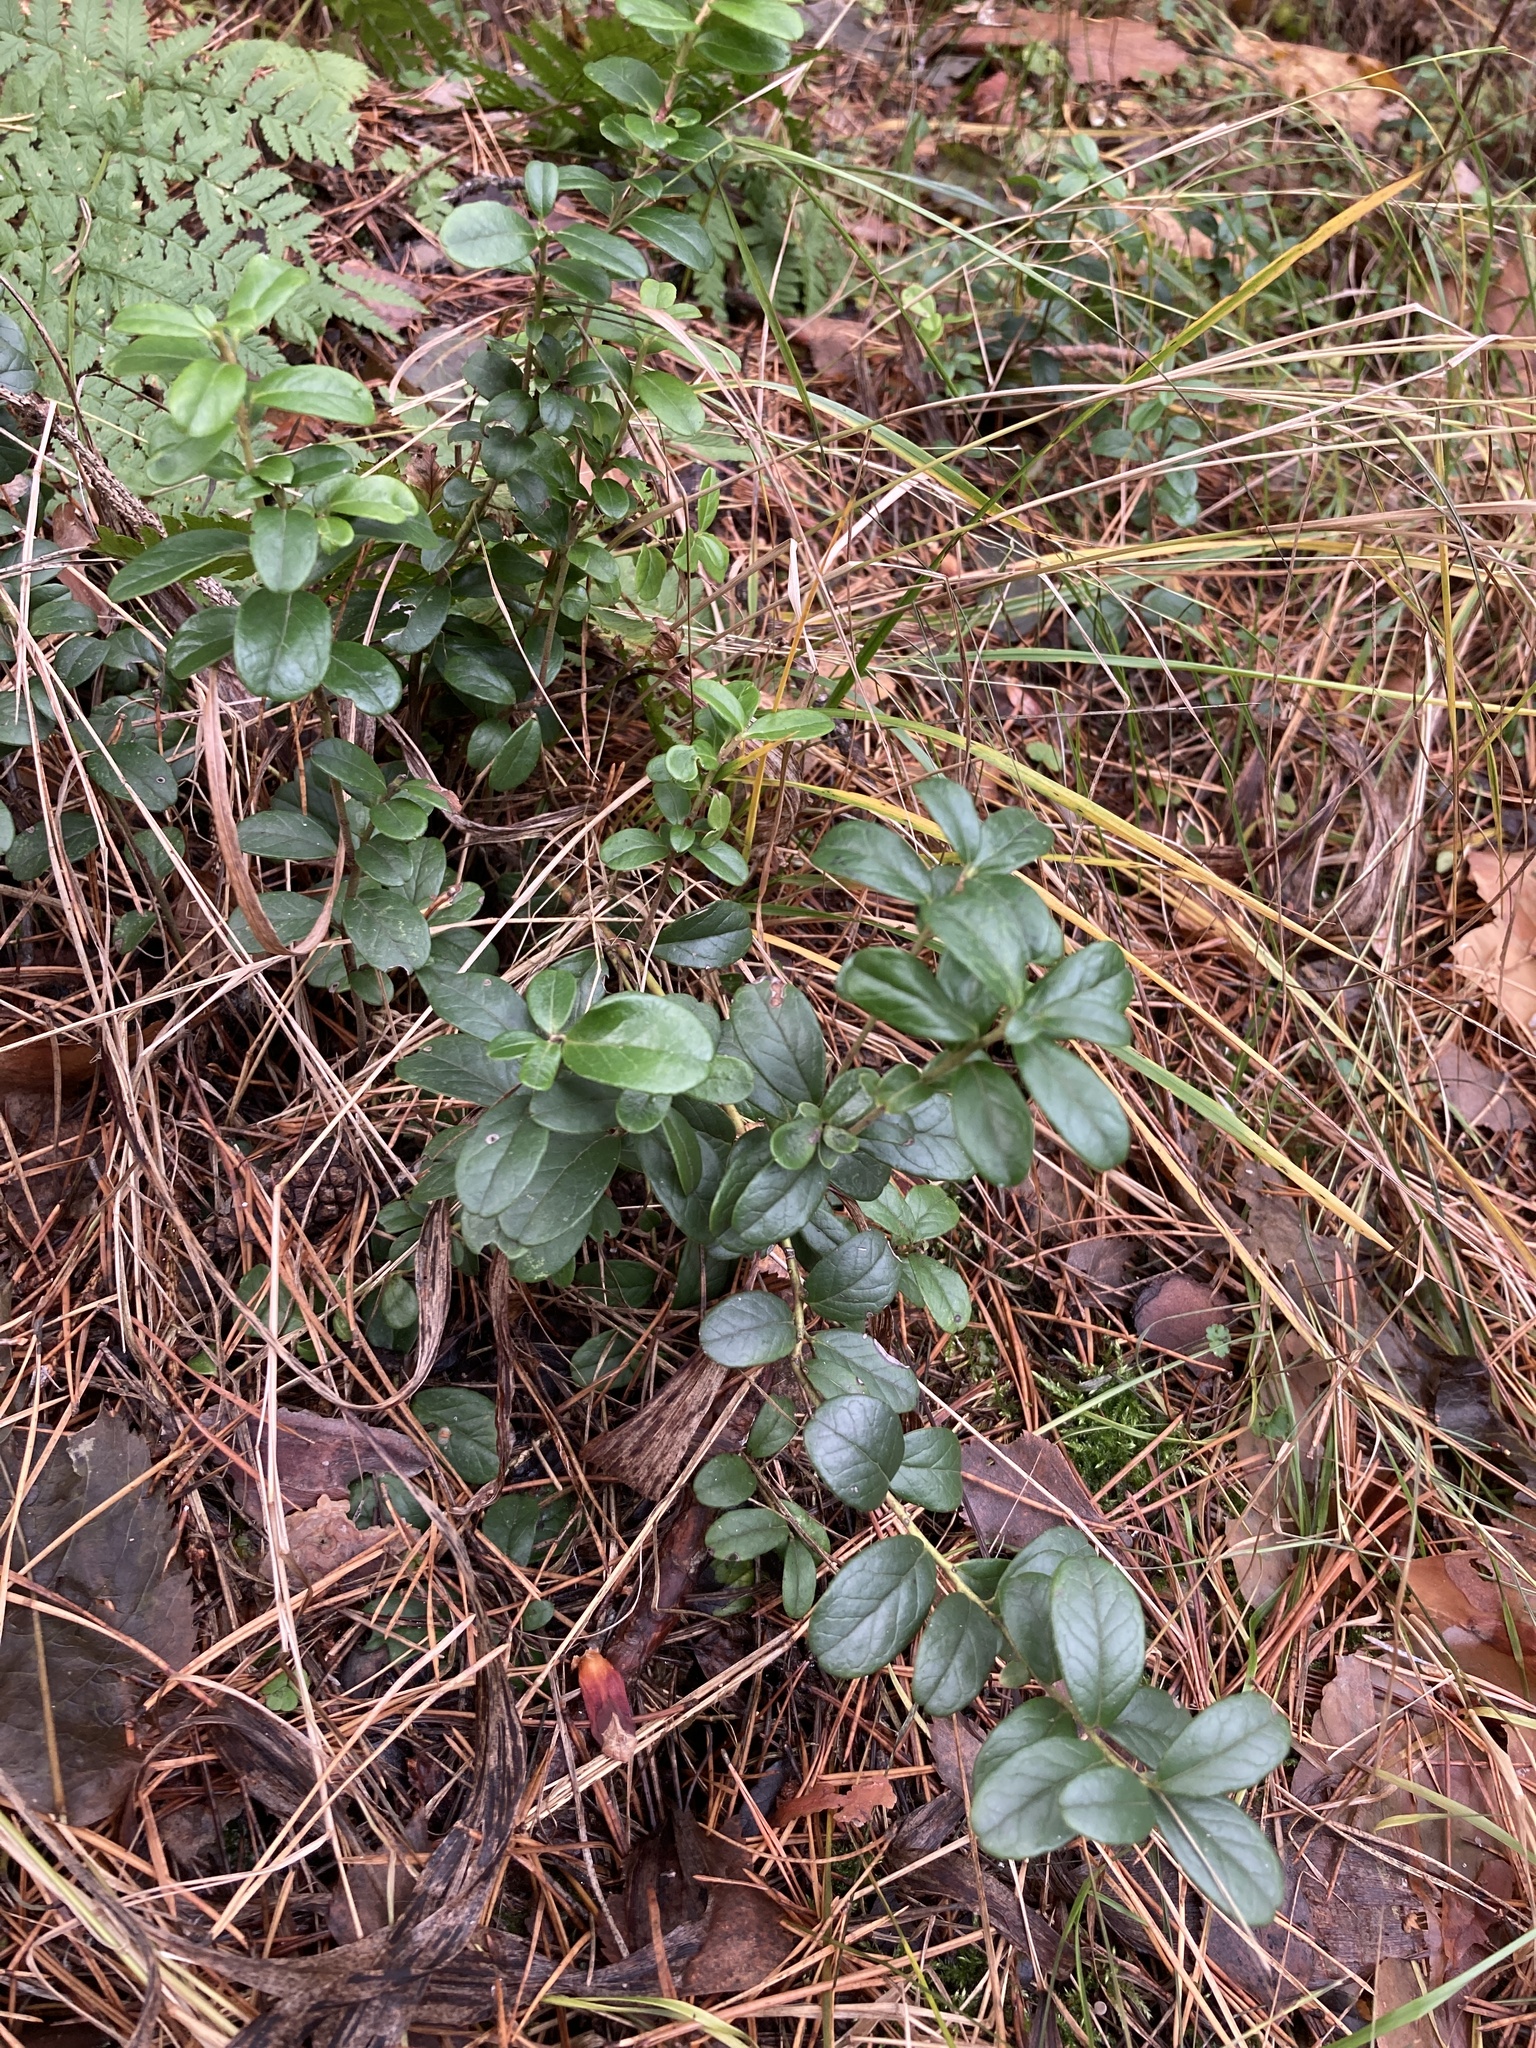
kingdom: Plantae
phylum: Tracheophyta
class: Magnoliopsida
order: Ericales
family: Ericaceae
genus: Vaccinium
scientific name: Vaccinium vitis-idaea
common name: Cowberry
